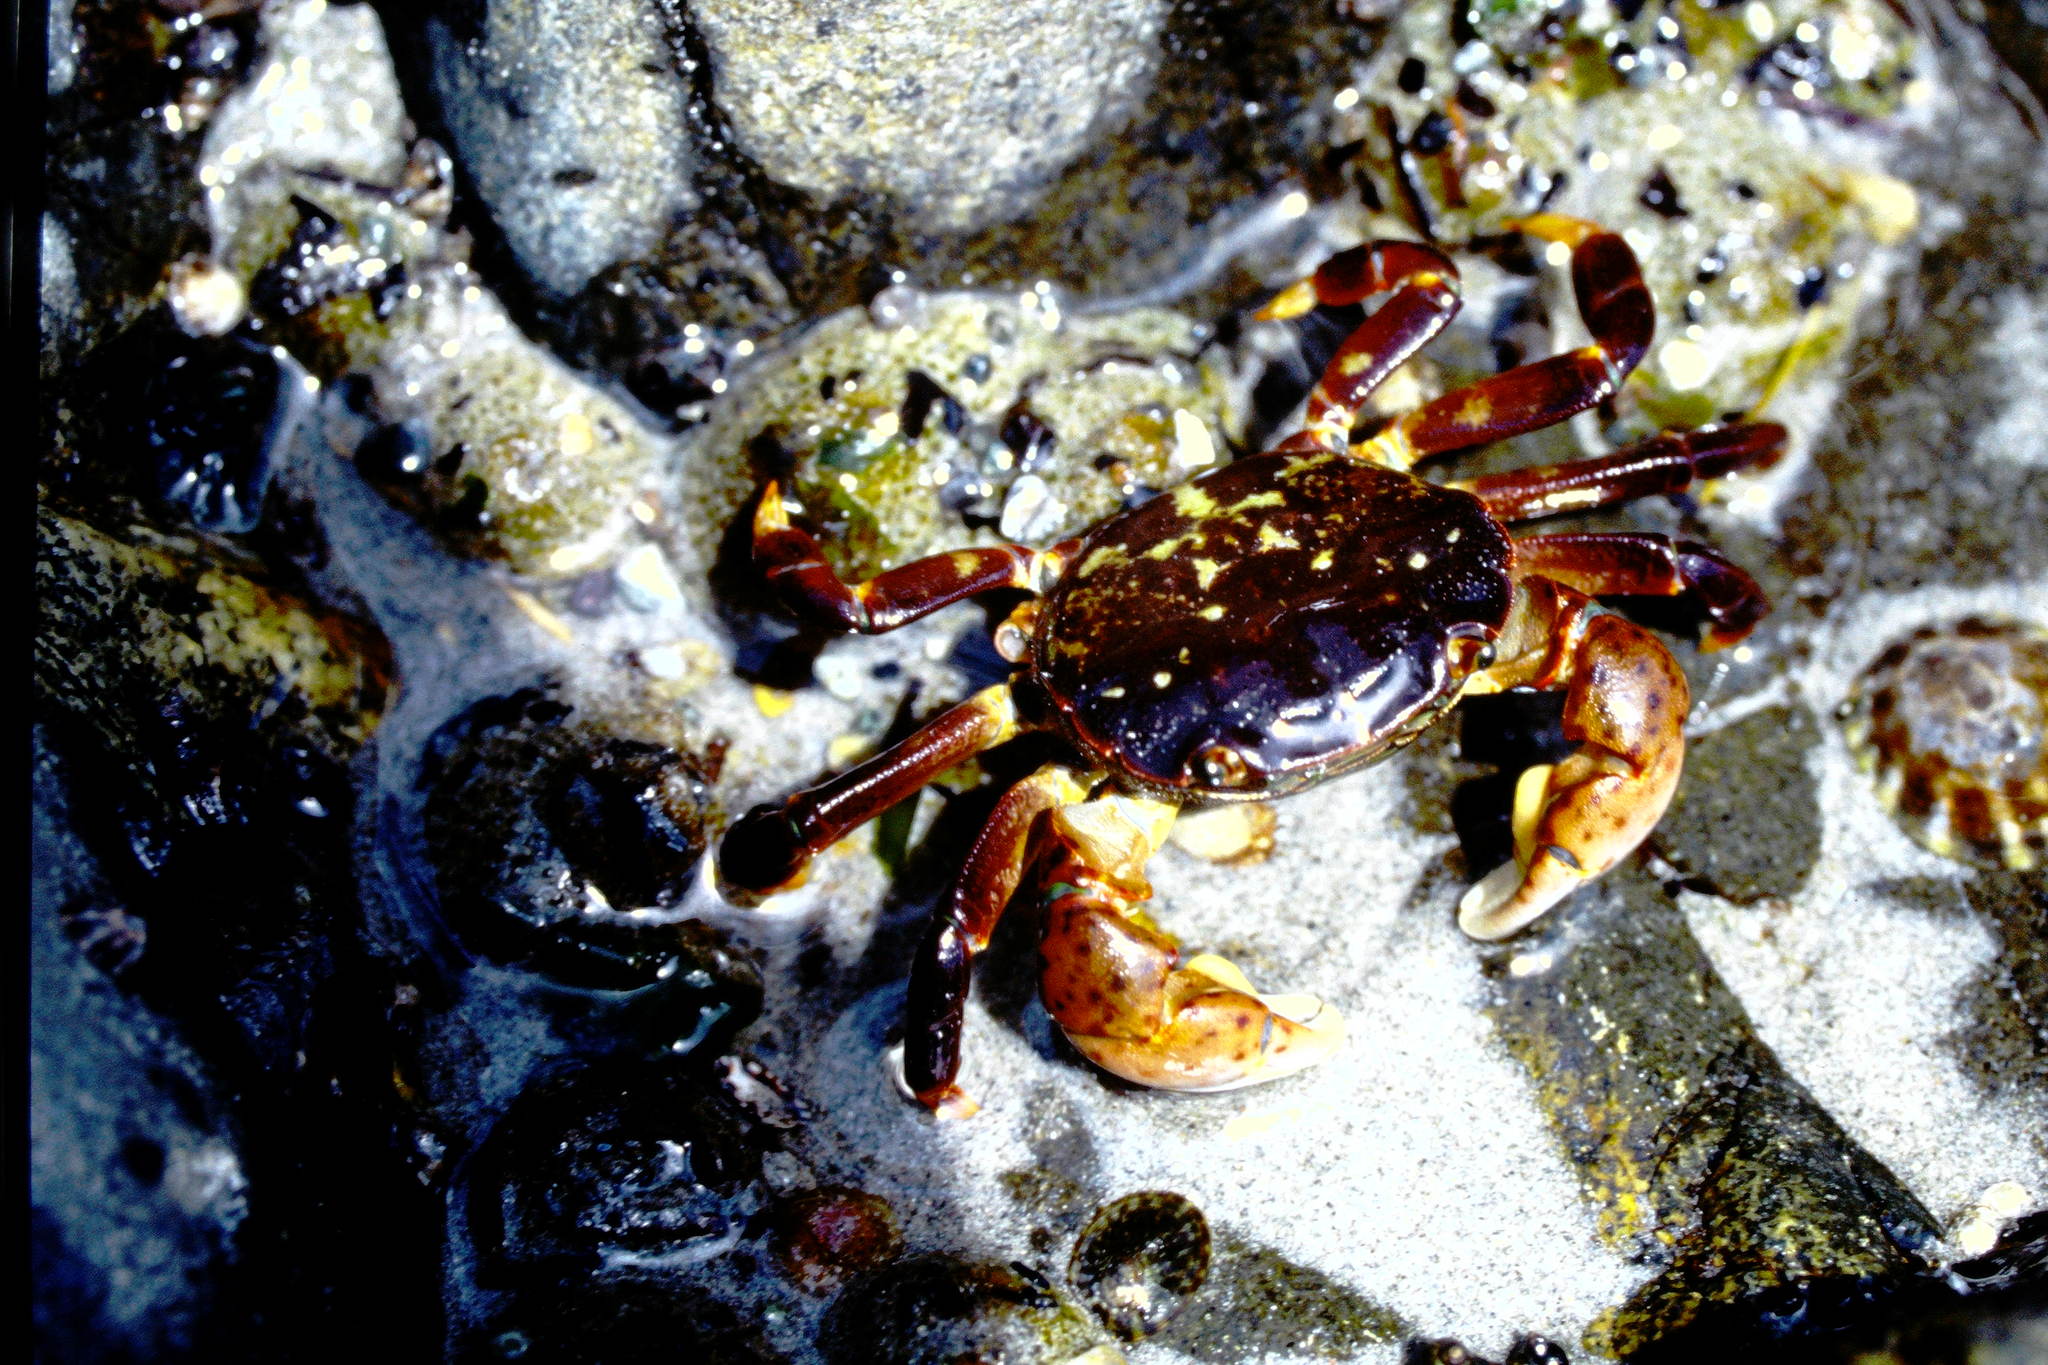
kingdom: Animalia
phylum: Arthropoda
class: Malacostraca
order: Decapoda
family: Varunidae
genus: Hemigrapsus
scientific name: Hemigrapsus nudus
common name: Purple shore crab
